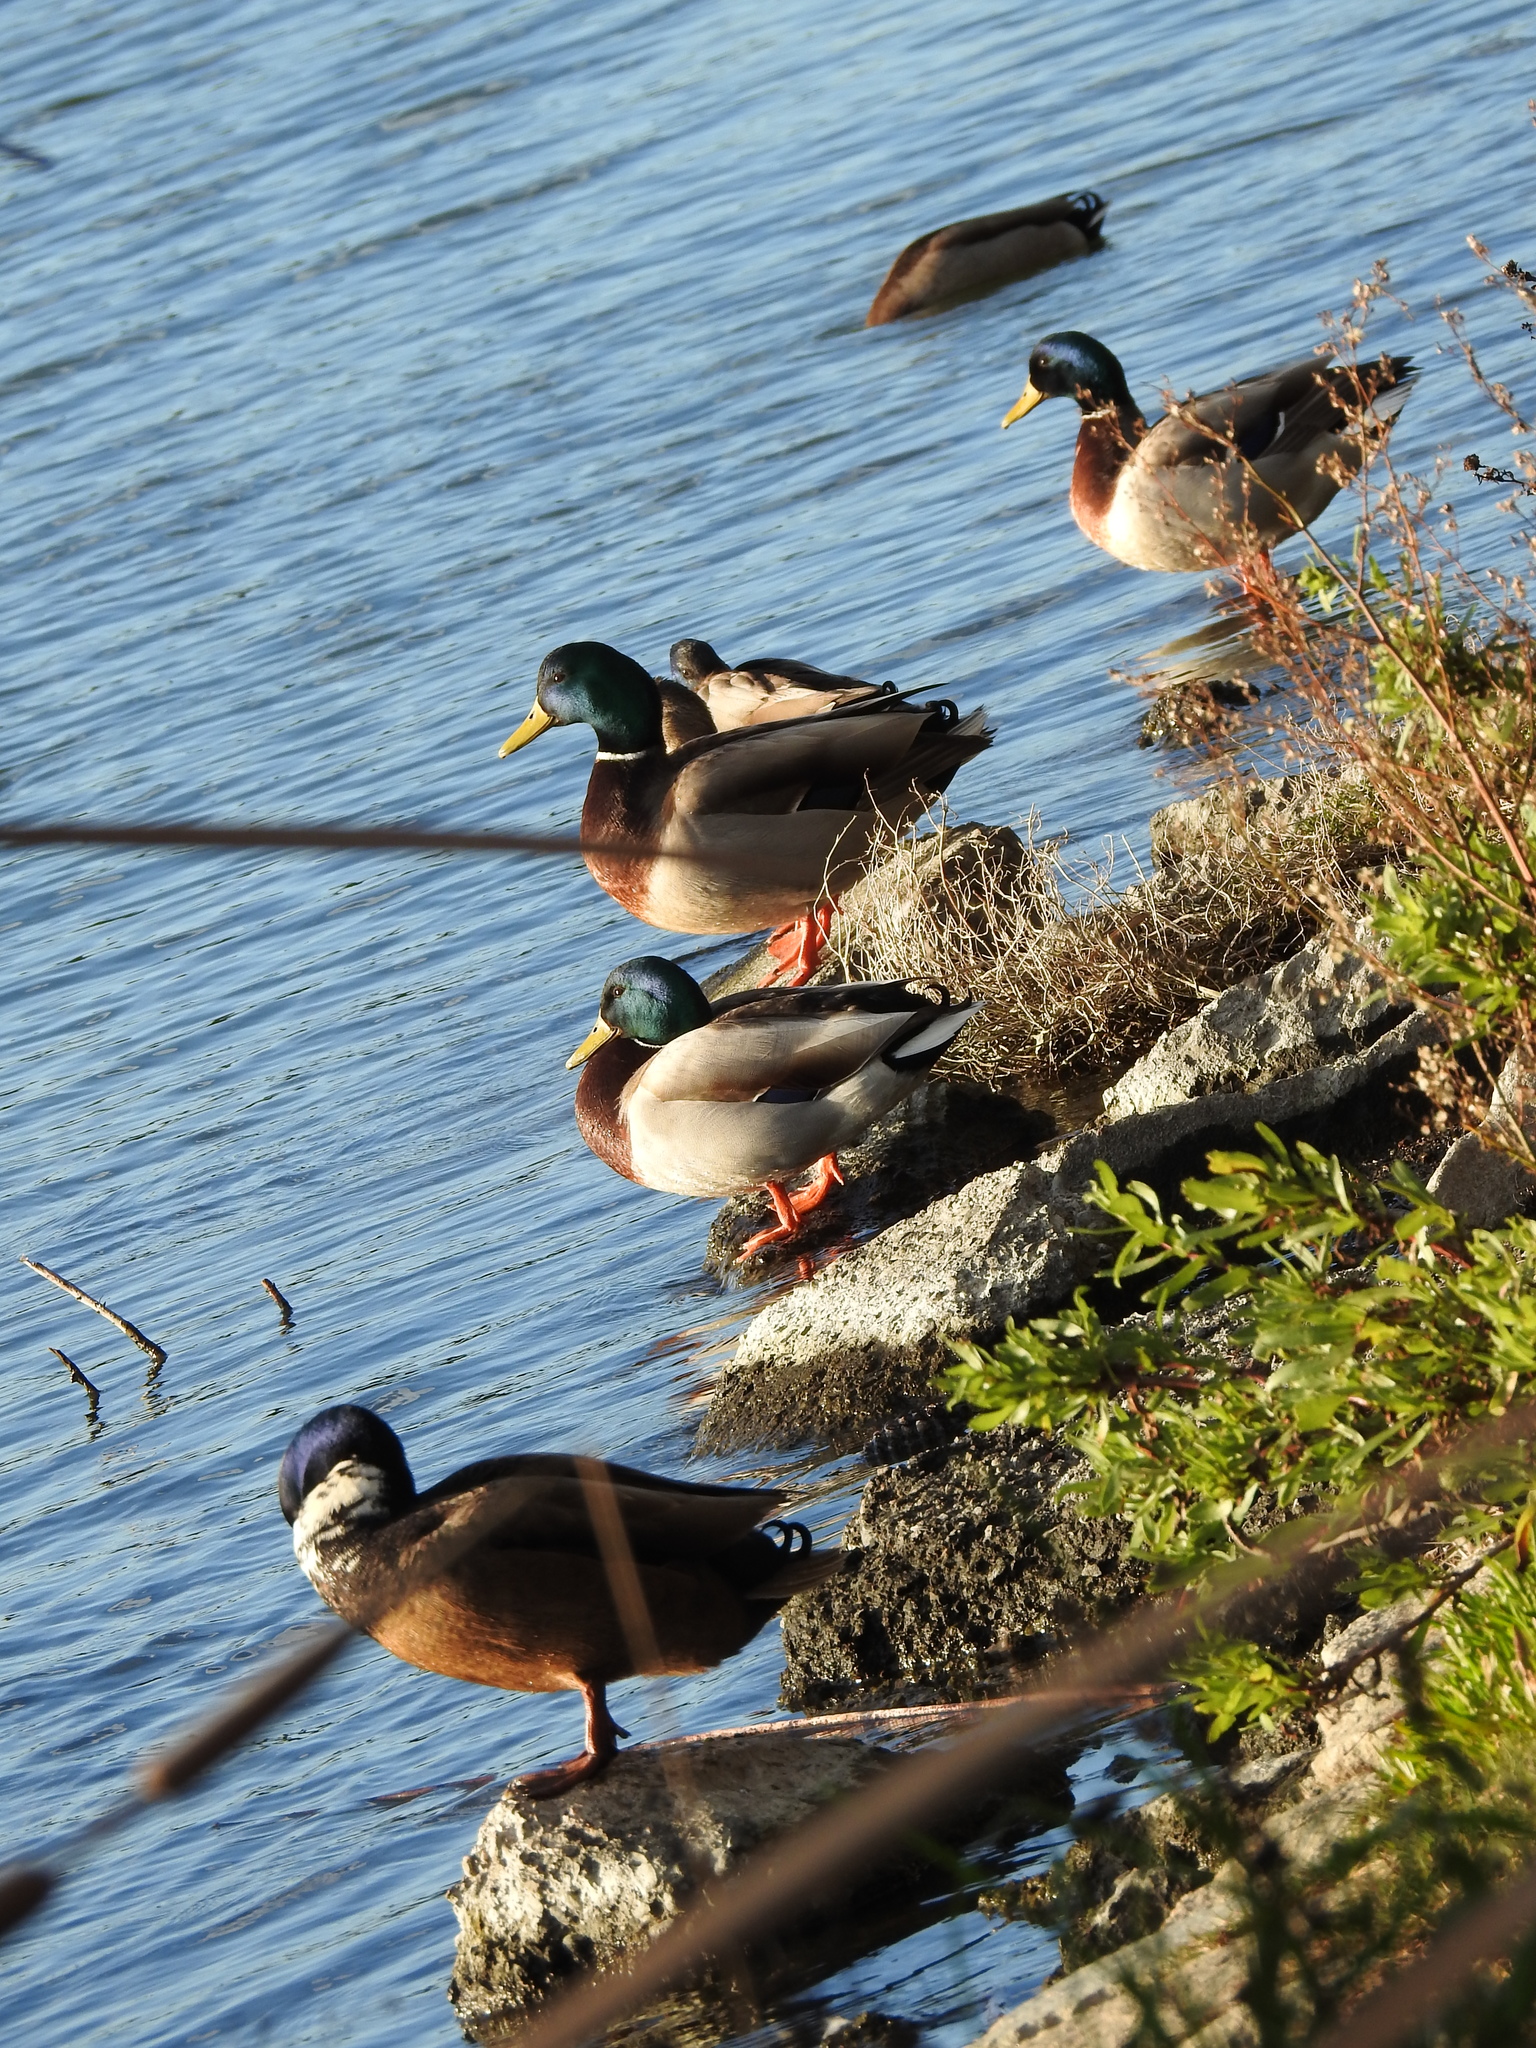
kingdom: Animalia
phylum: Chordata
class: Aves
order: Anseriformes
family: Anatidae
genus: Anas
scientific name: Anas platyrhynchos
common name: Mallard
